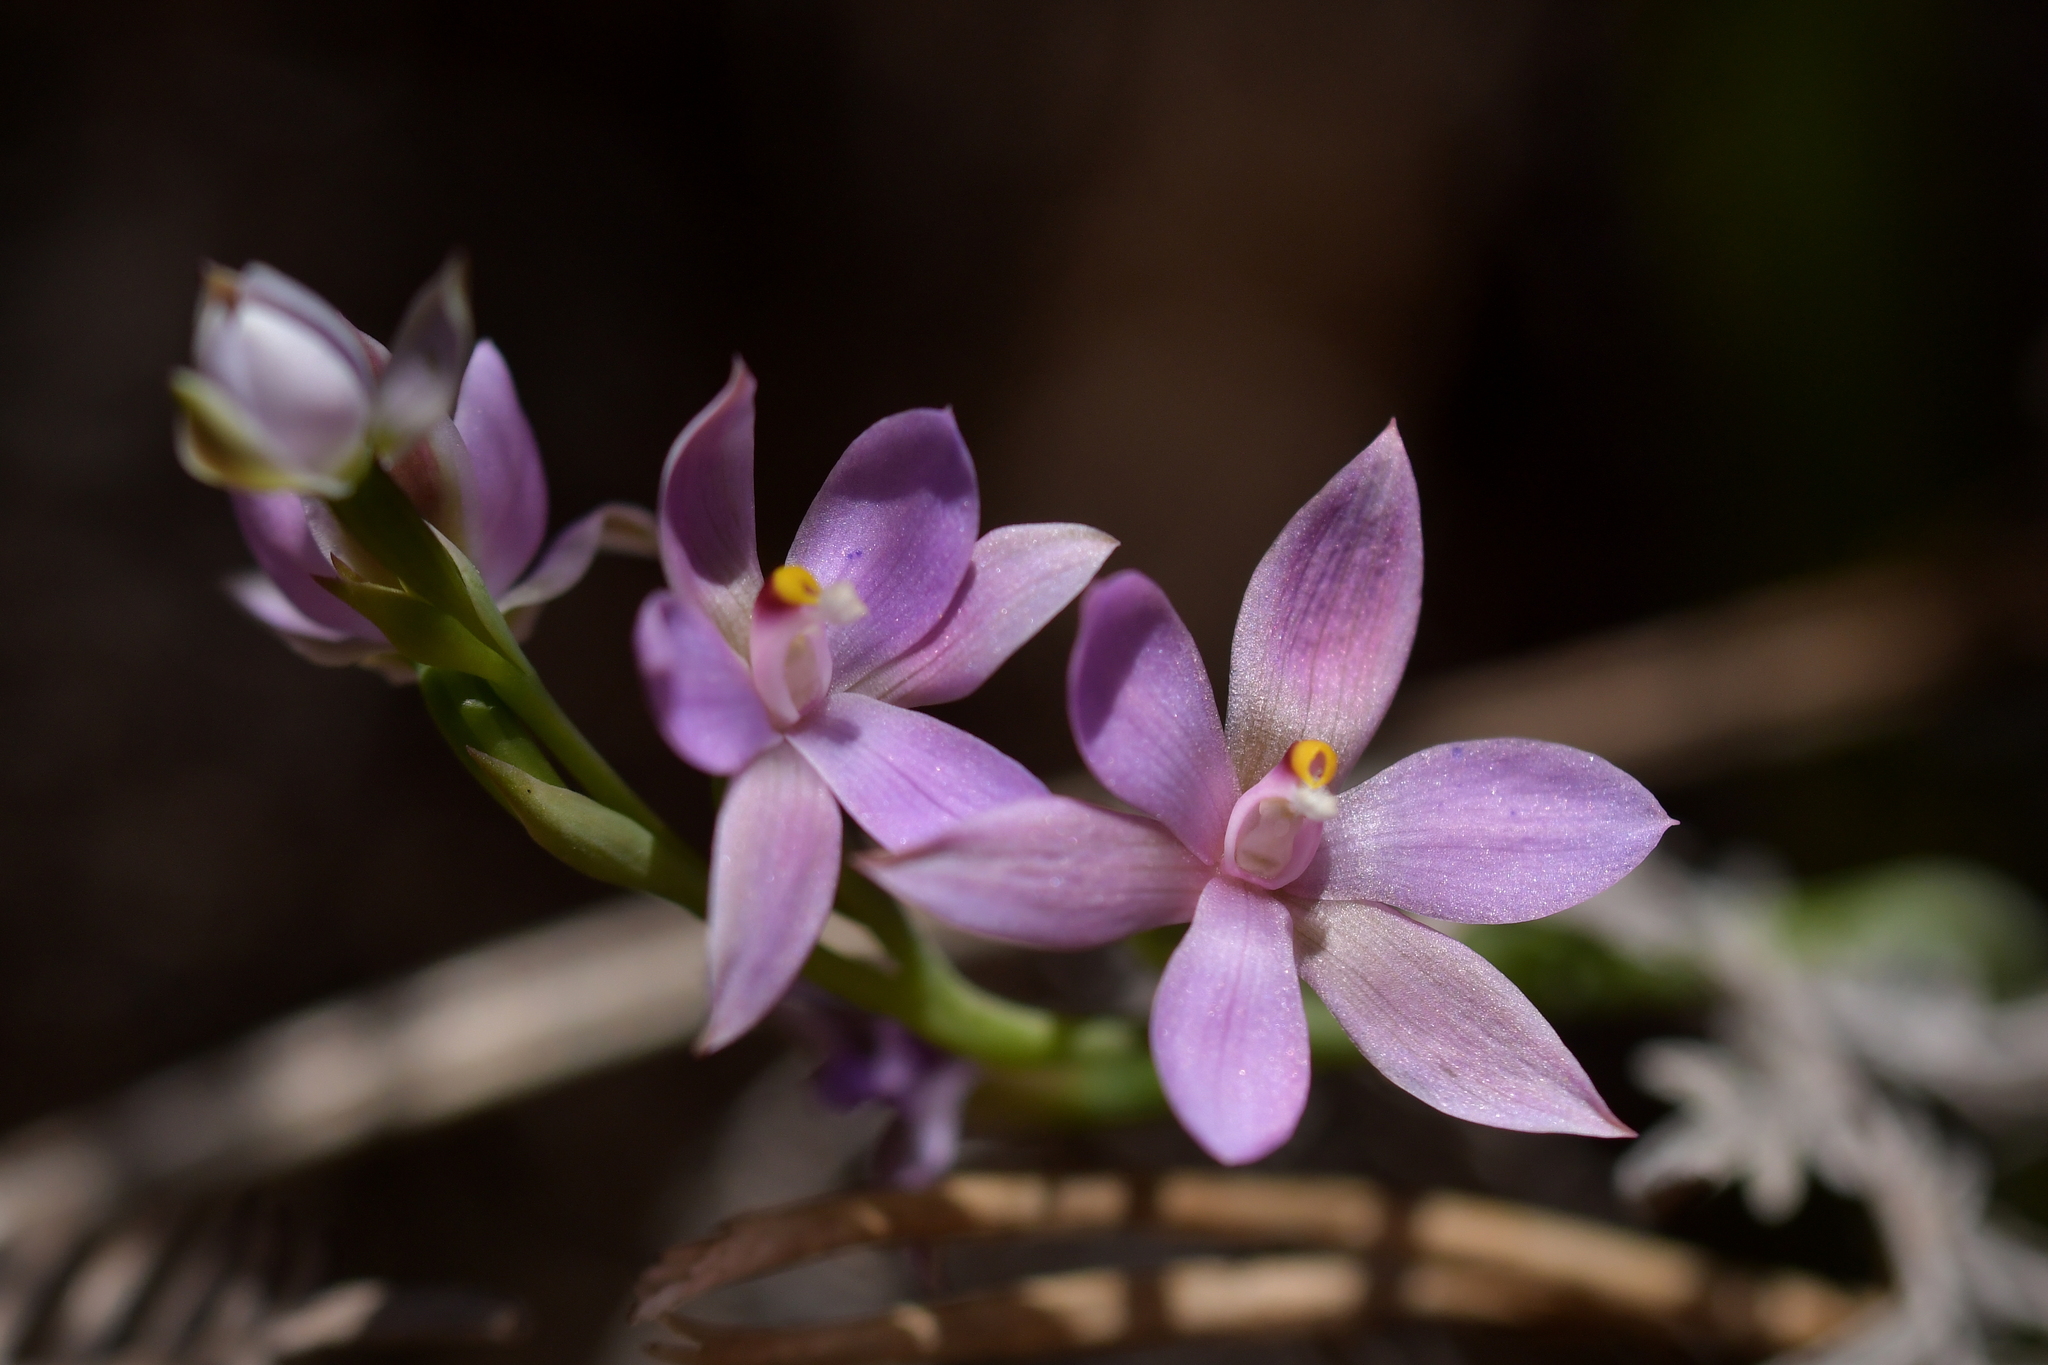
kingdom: Plantae
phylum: Tracheophyta
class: Liliopsida
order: Asparagales
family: Orchidaceae
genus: Thelymitra
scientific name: Thelymitra nervosa
